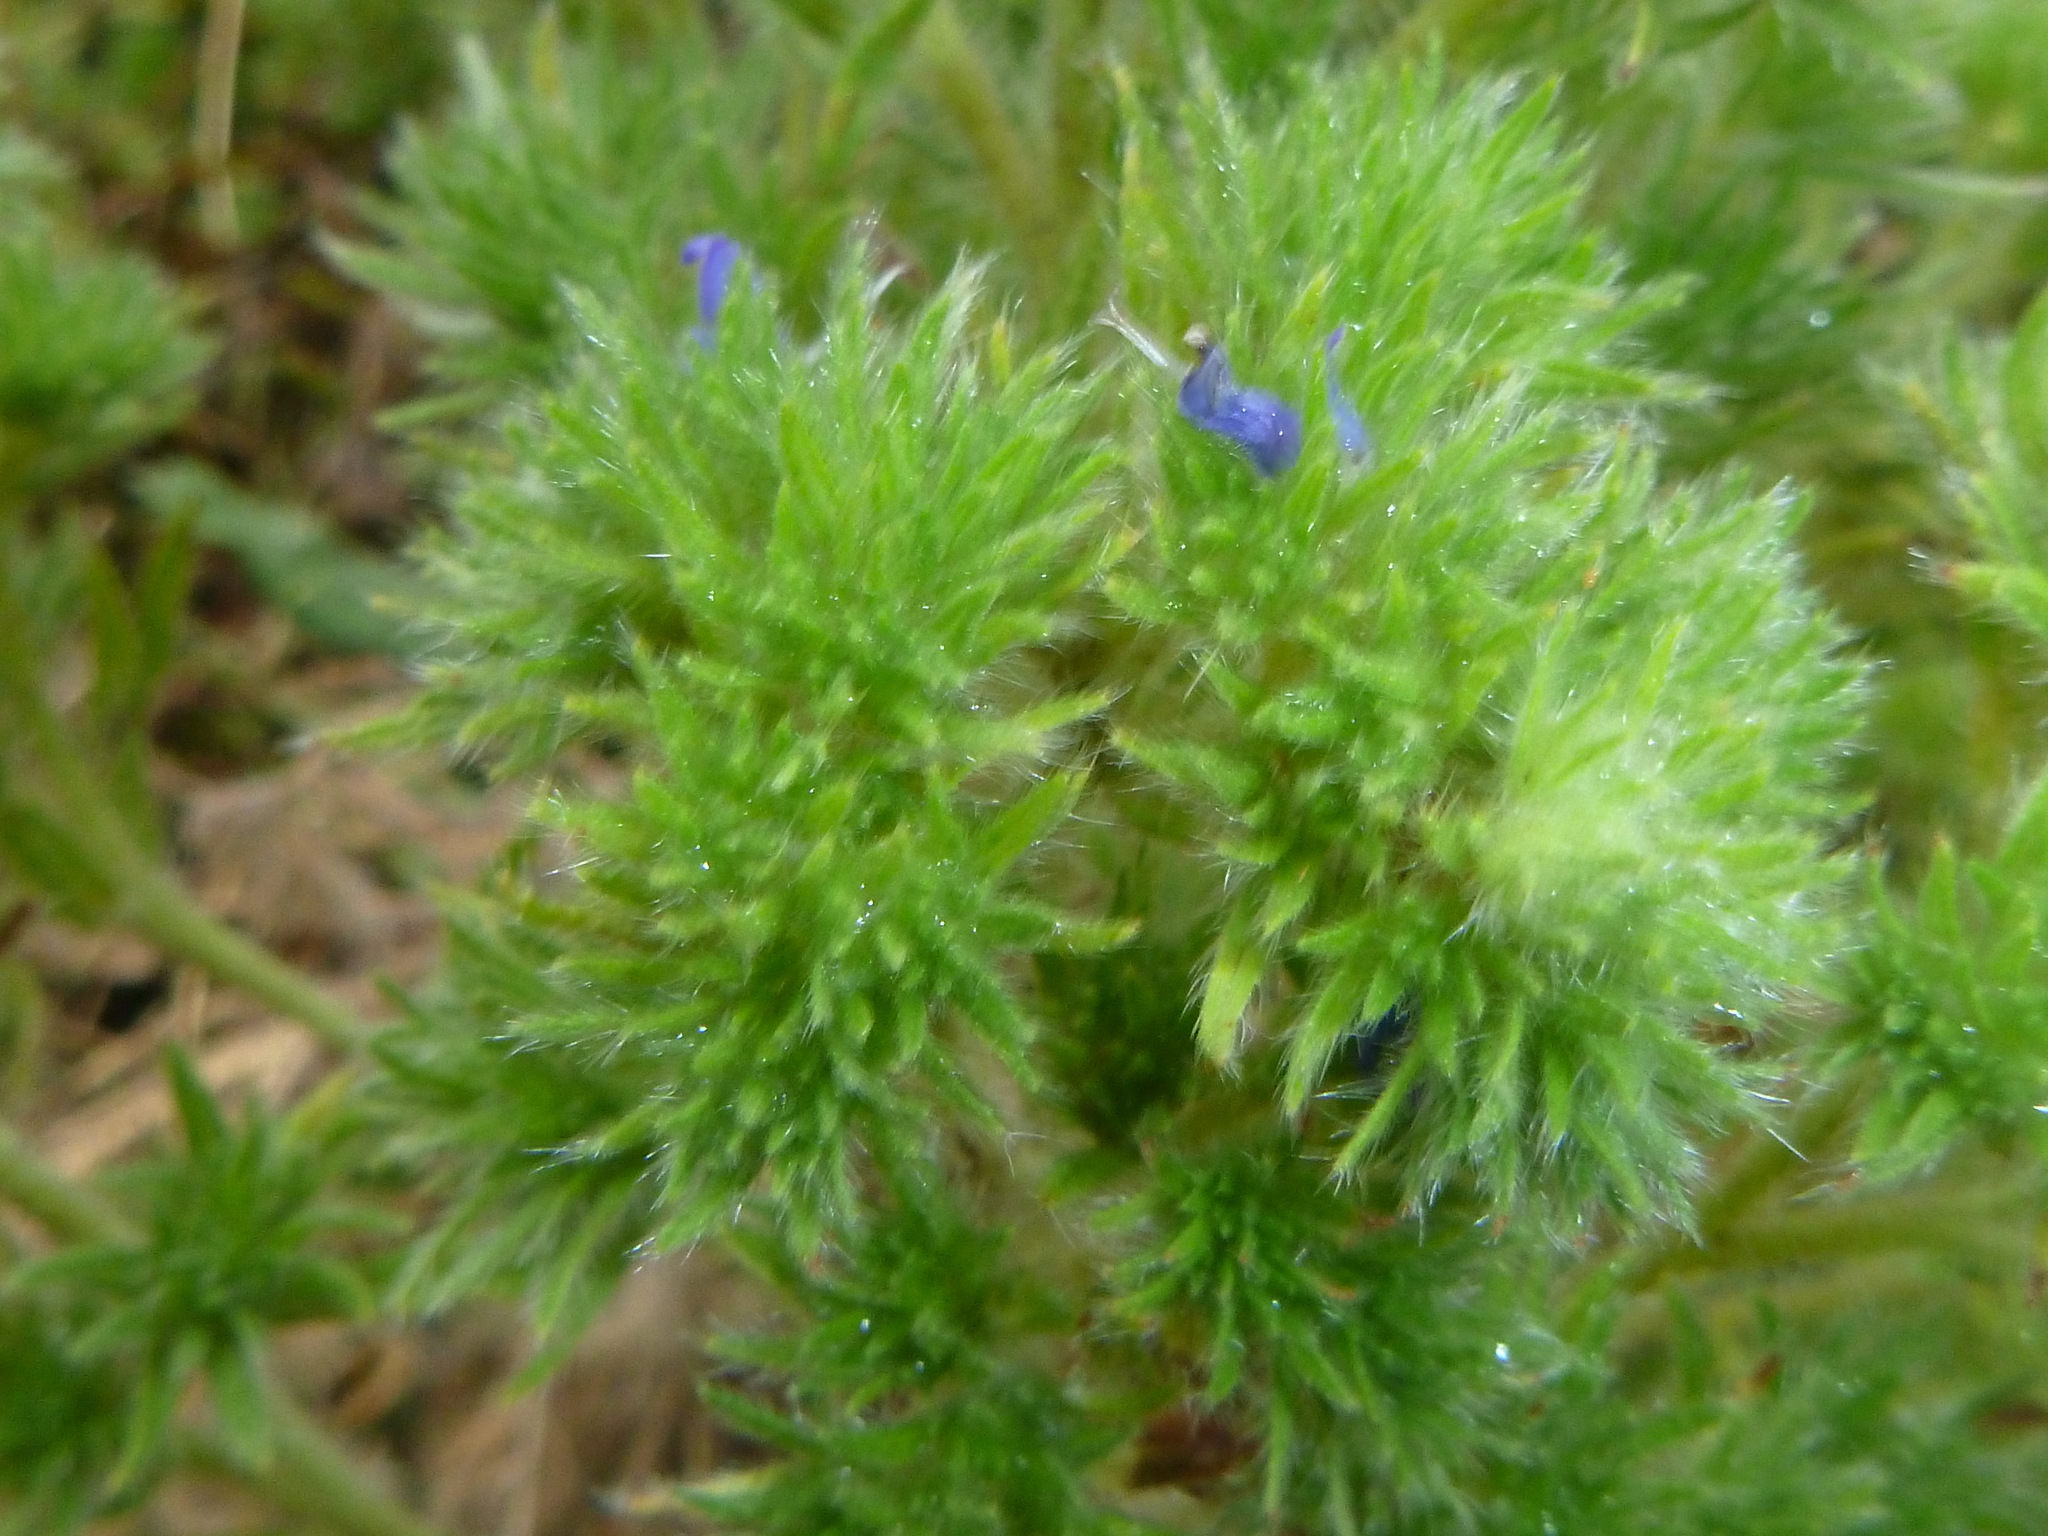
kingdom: Plantae
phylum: Tracheophyta
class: Magnoliopsida
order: Boraginales
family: Boraginaceae
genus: Echium
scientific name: Echium vulgare
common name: Common viper's bugloss
